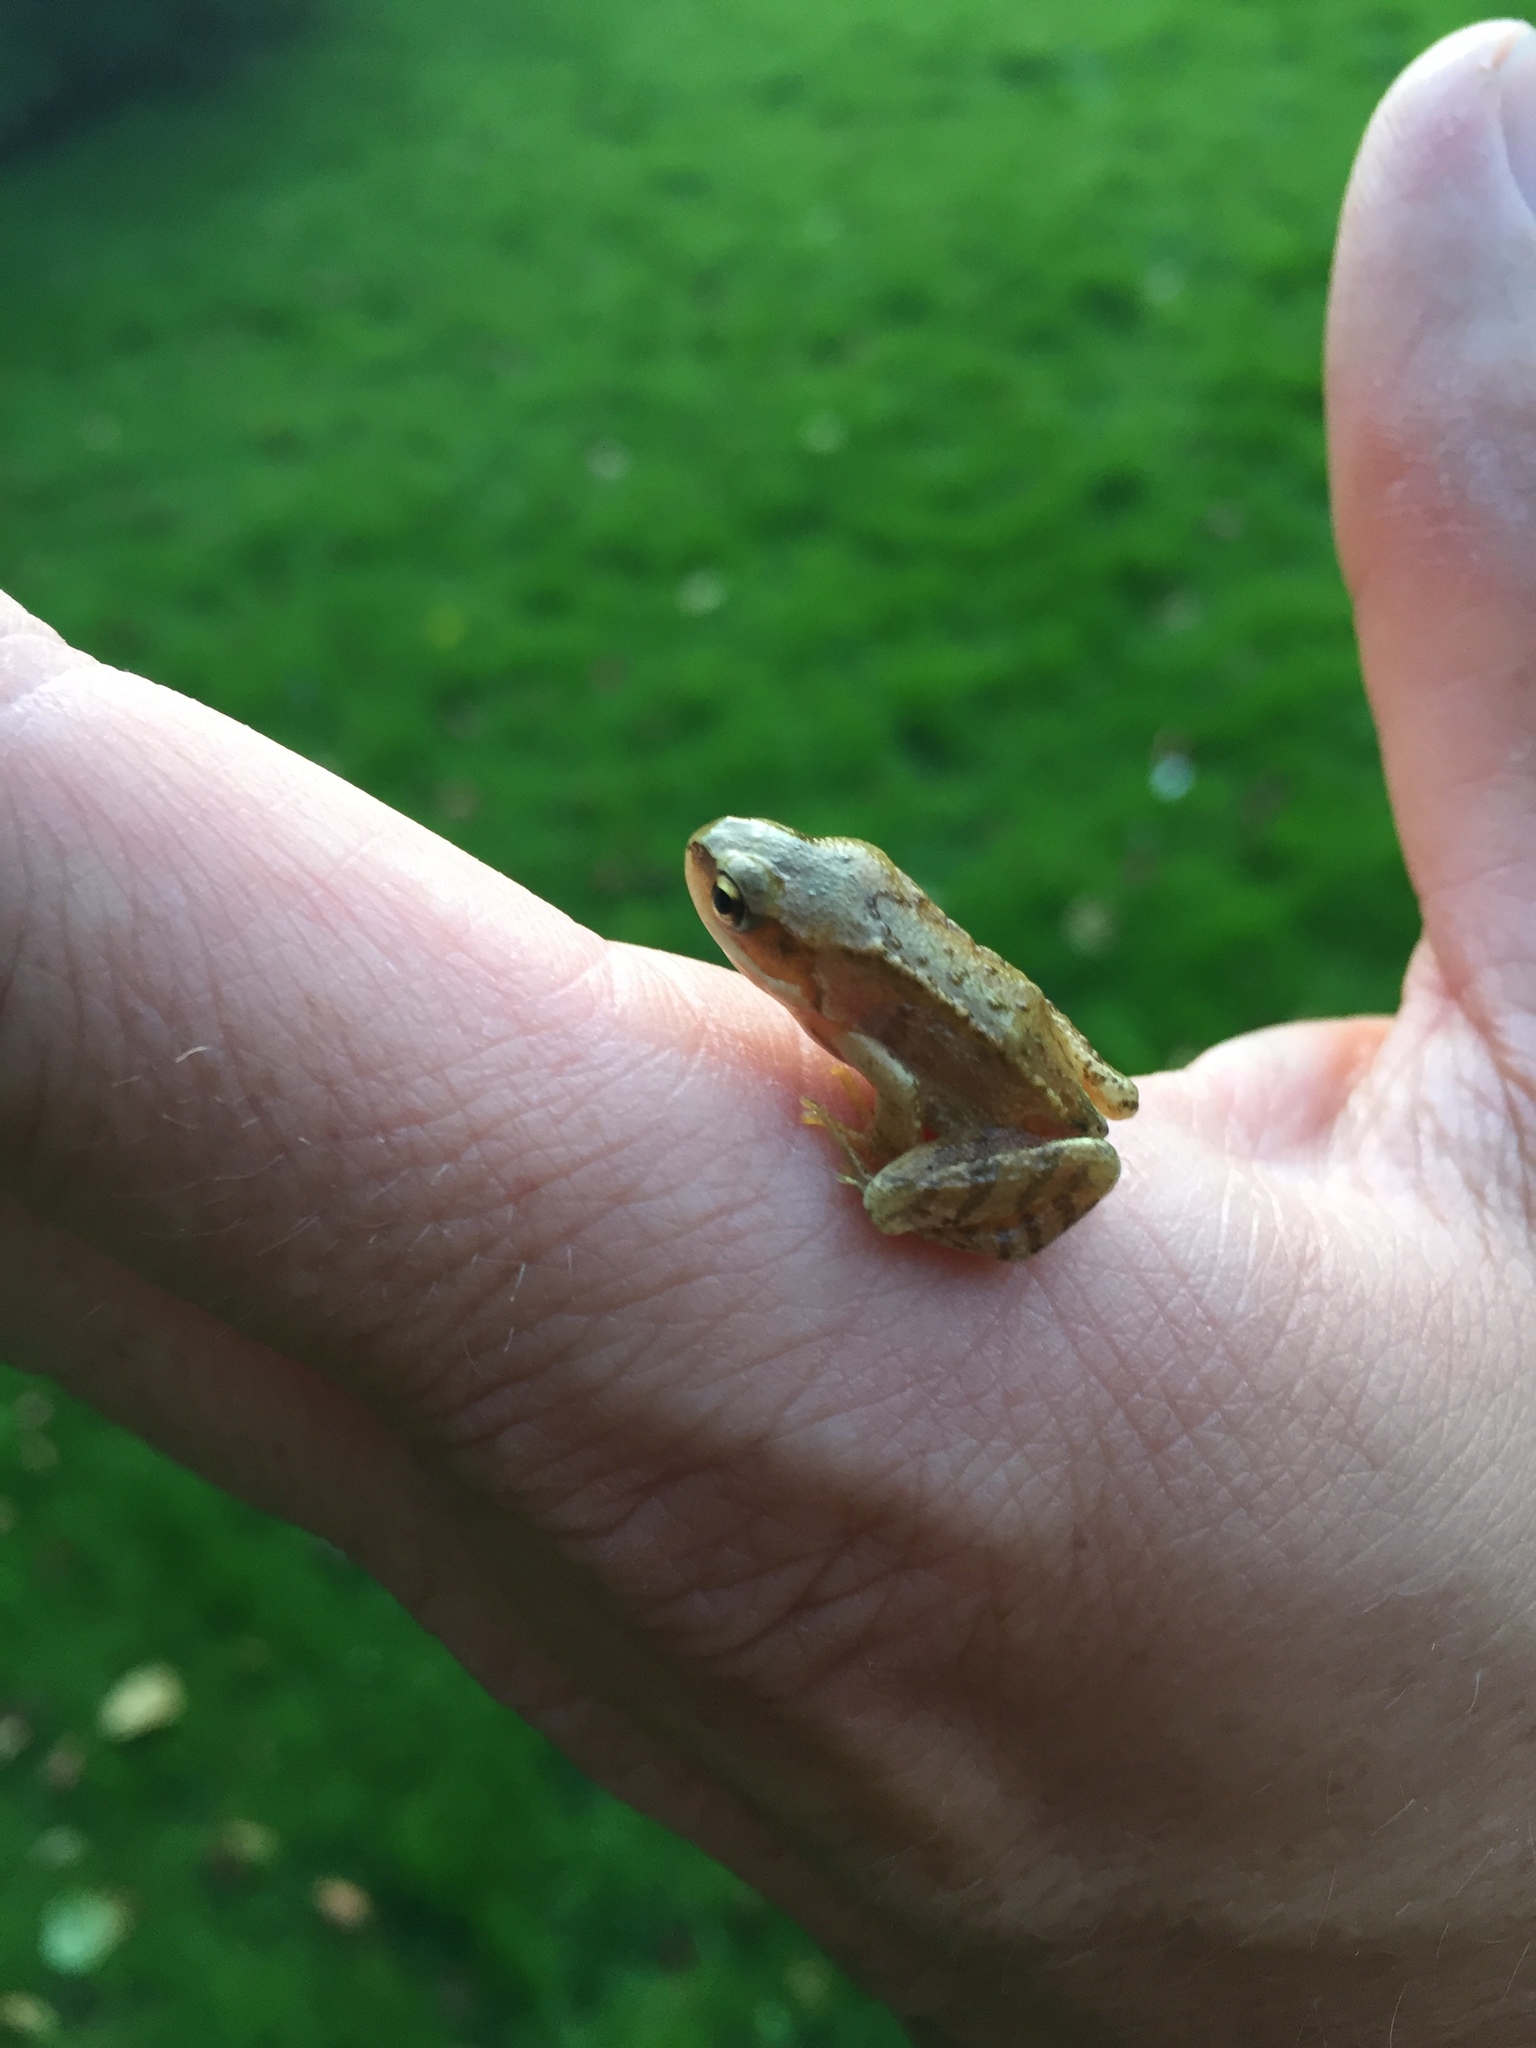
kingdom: Animalia
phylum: Chordata
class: Amphibia
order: Anura
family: Ranidae
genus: Rana
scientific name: Rana temporaria
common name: Common frog
